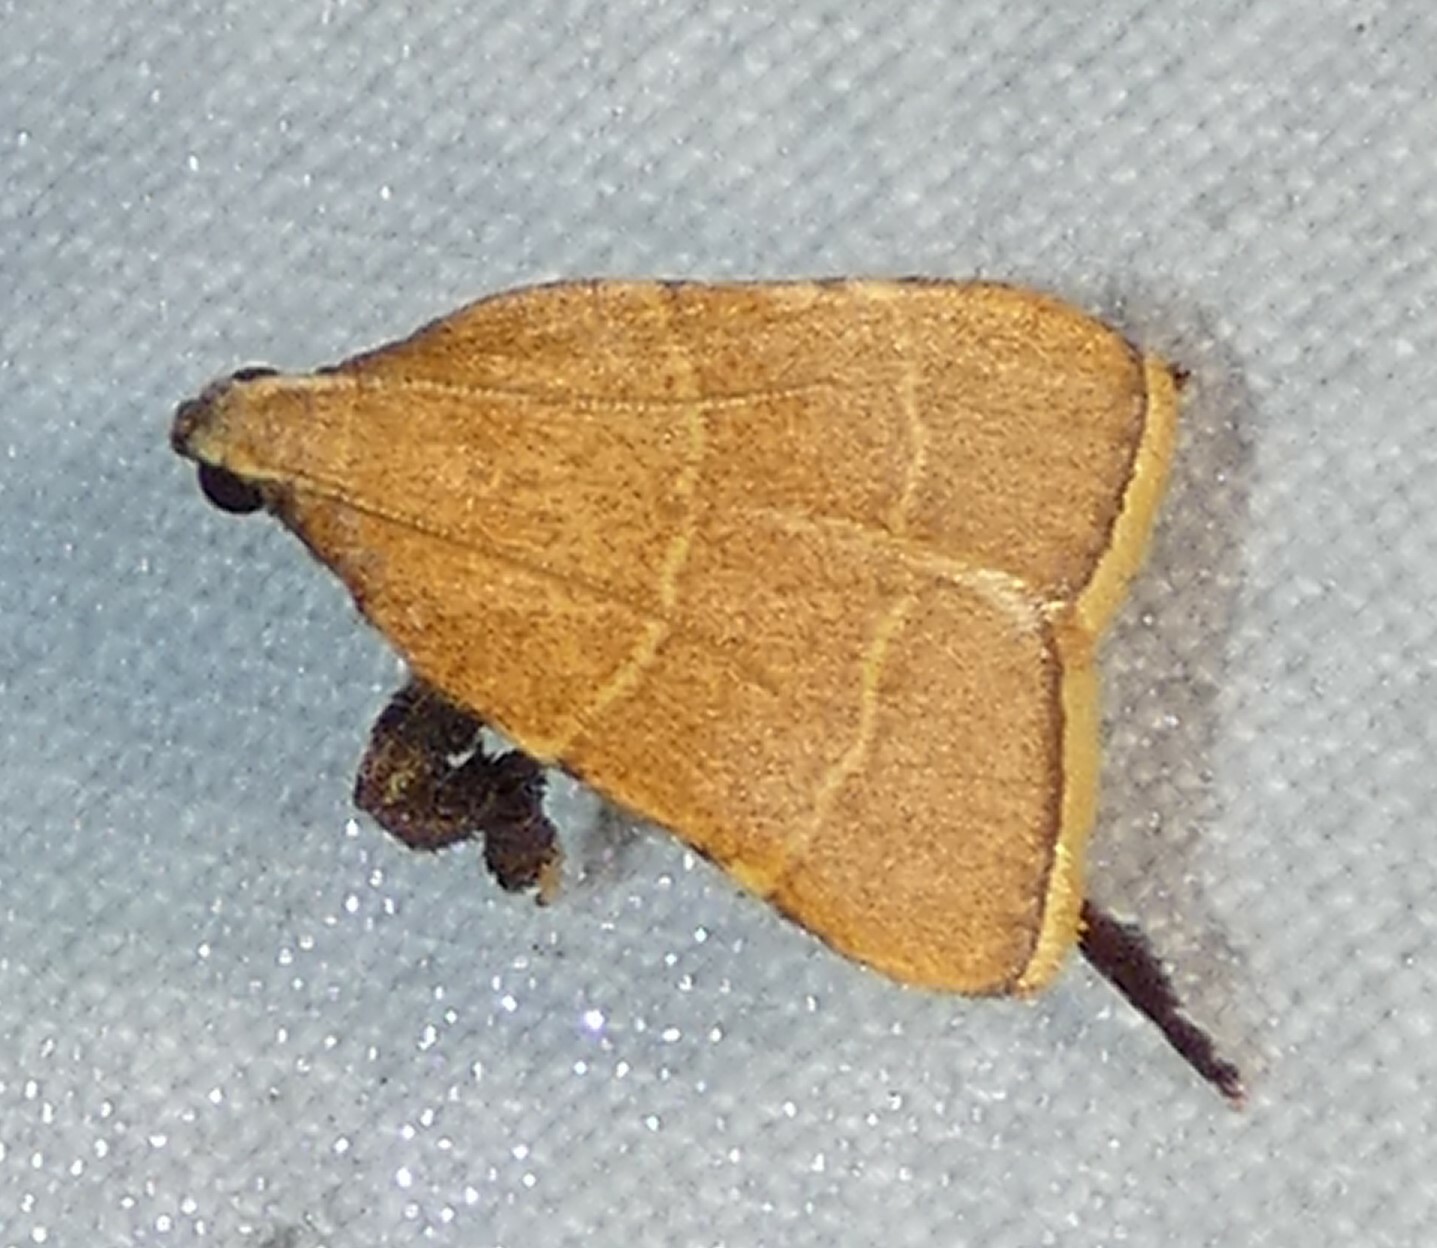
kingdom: Animalia
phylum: Arthropoda
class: Insecta
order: Lepidoptera
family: Pyralidae
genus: Parachma
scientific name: Parachma ochracealis
